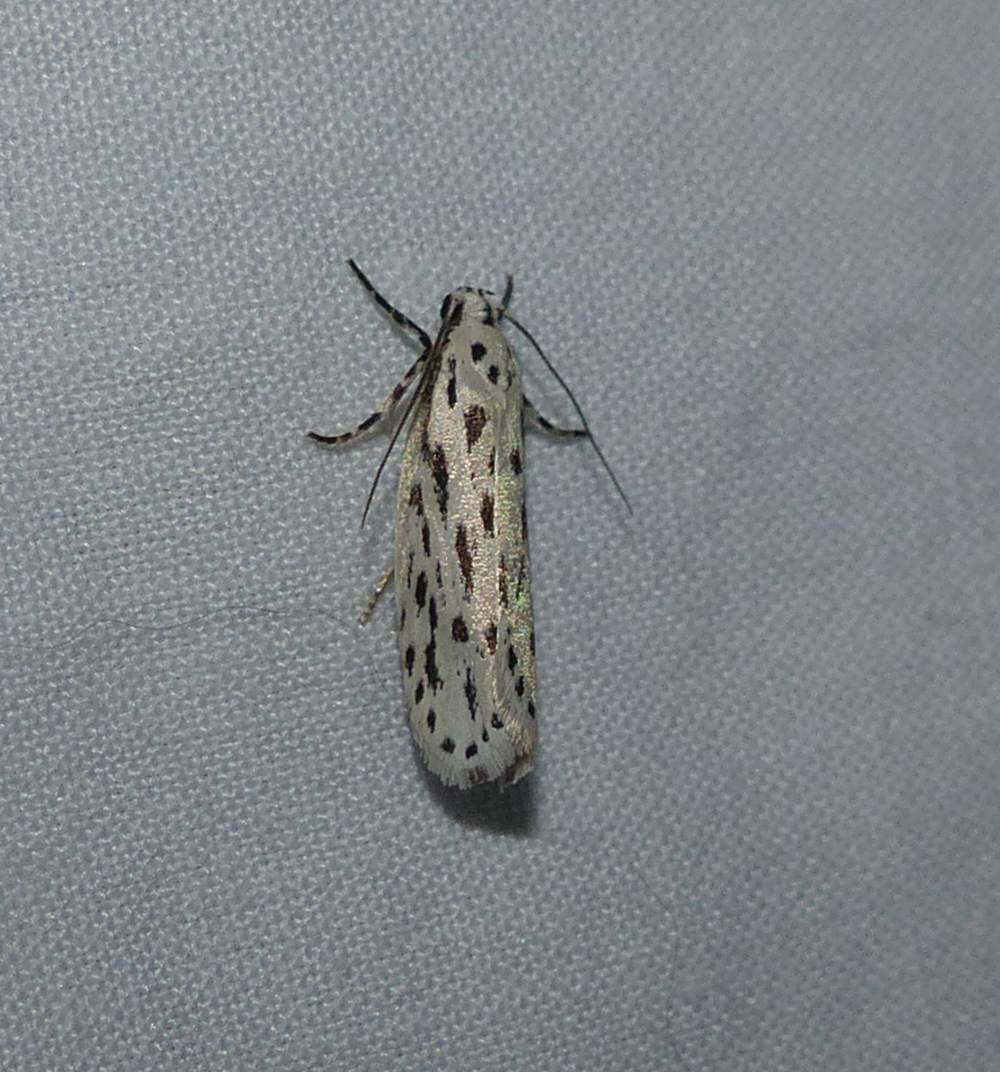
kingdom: Animalia
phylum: Arthropoda
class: Insecta
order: Lepidoptera
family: Ethmiidae
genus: Ethmia
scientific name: Ethmia longimaculella
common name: Streaked ethmia moth
